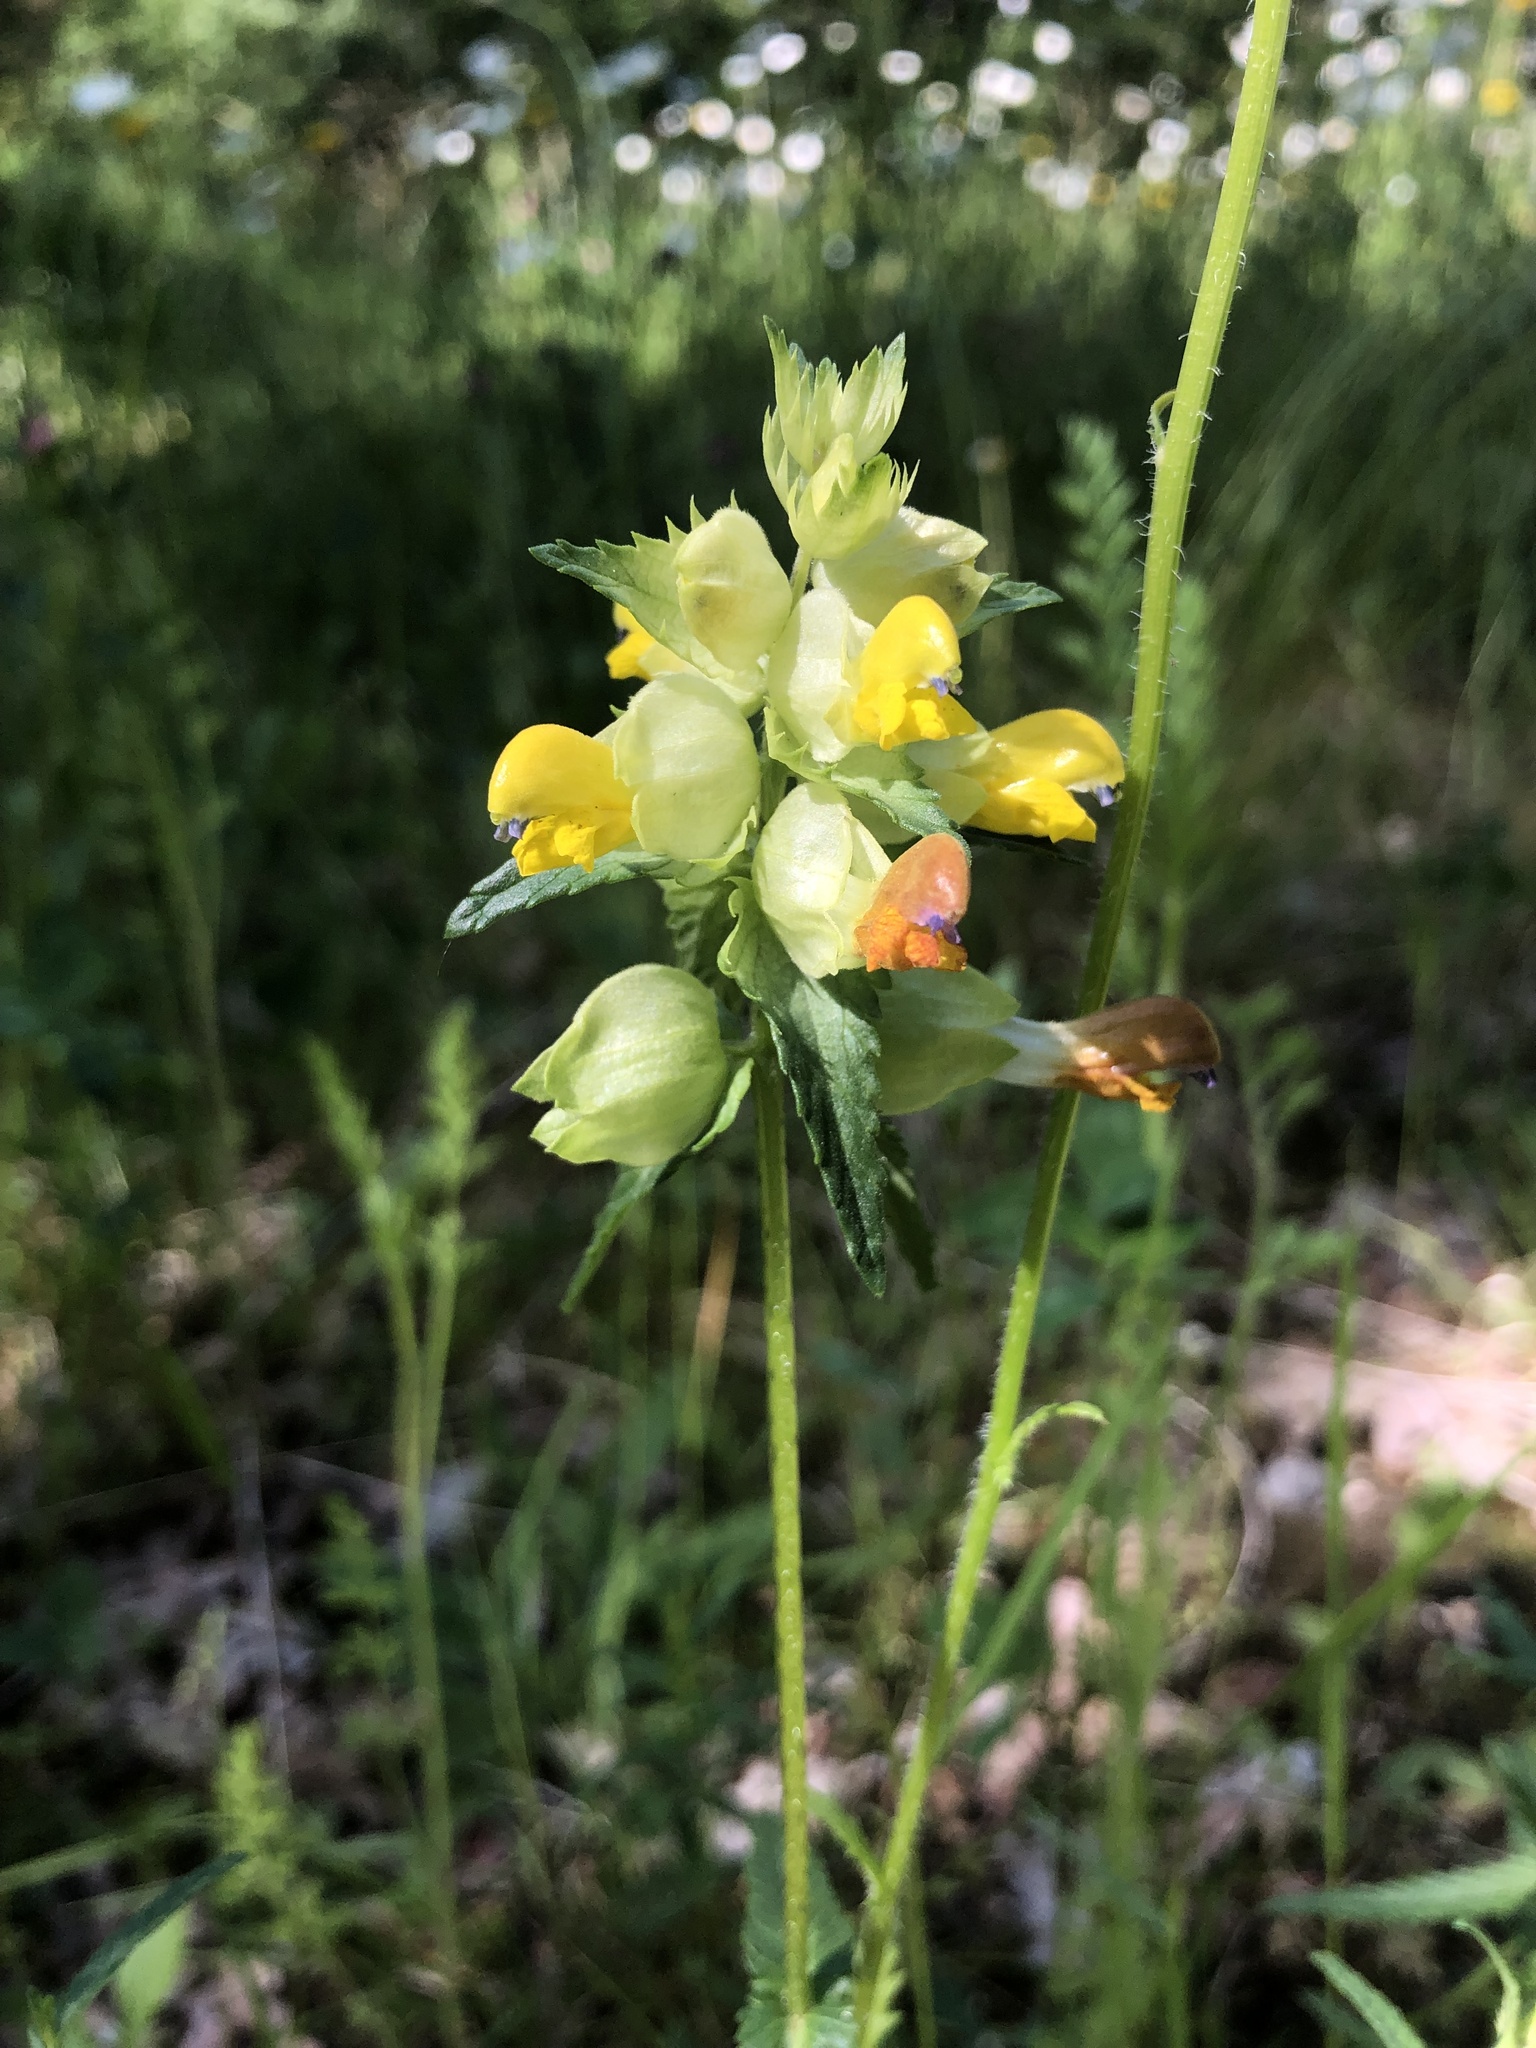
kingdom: Plantae
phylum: Tracheophyta
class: Magnoliopsida
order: Lamiales
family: Orobanchaceae
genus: Rhinanthus
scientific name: Rhinanthus serotinus
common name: Late-flowering yellow rattle
